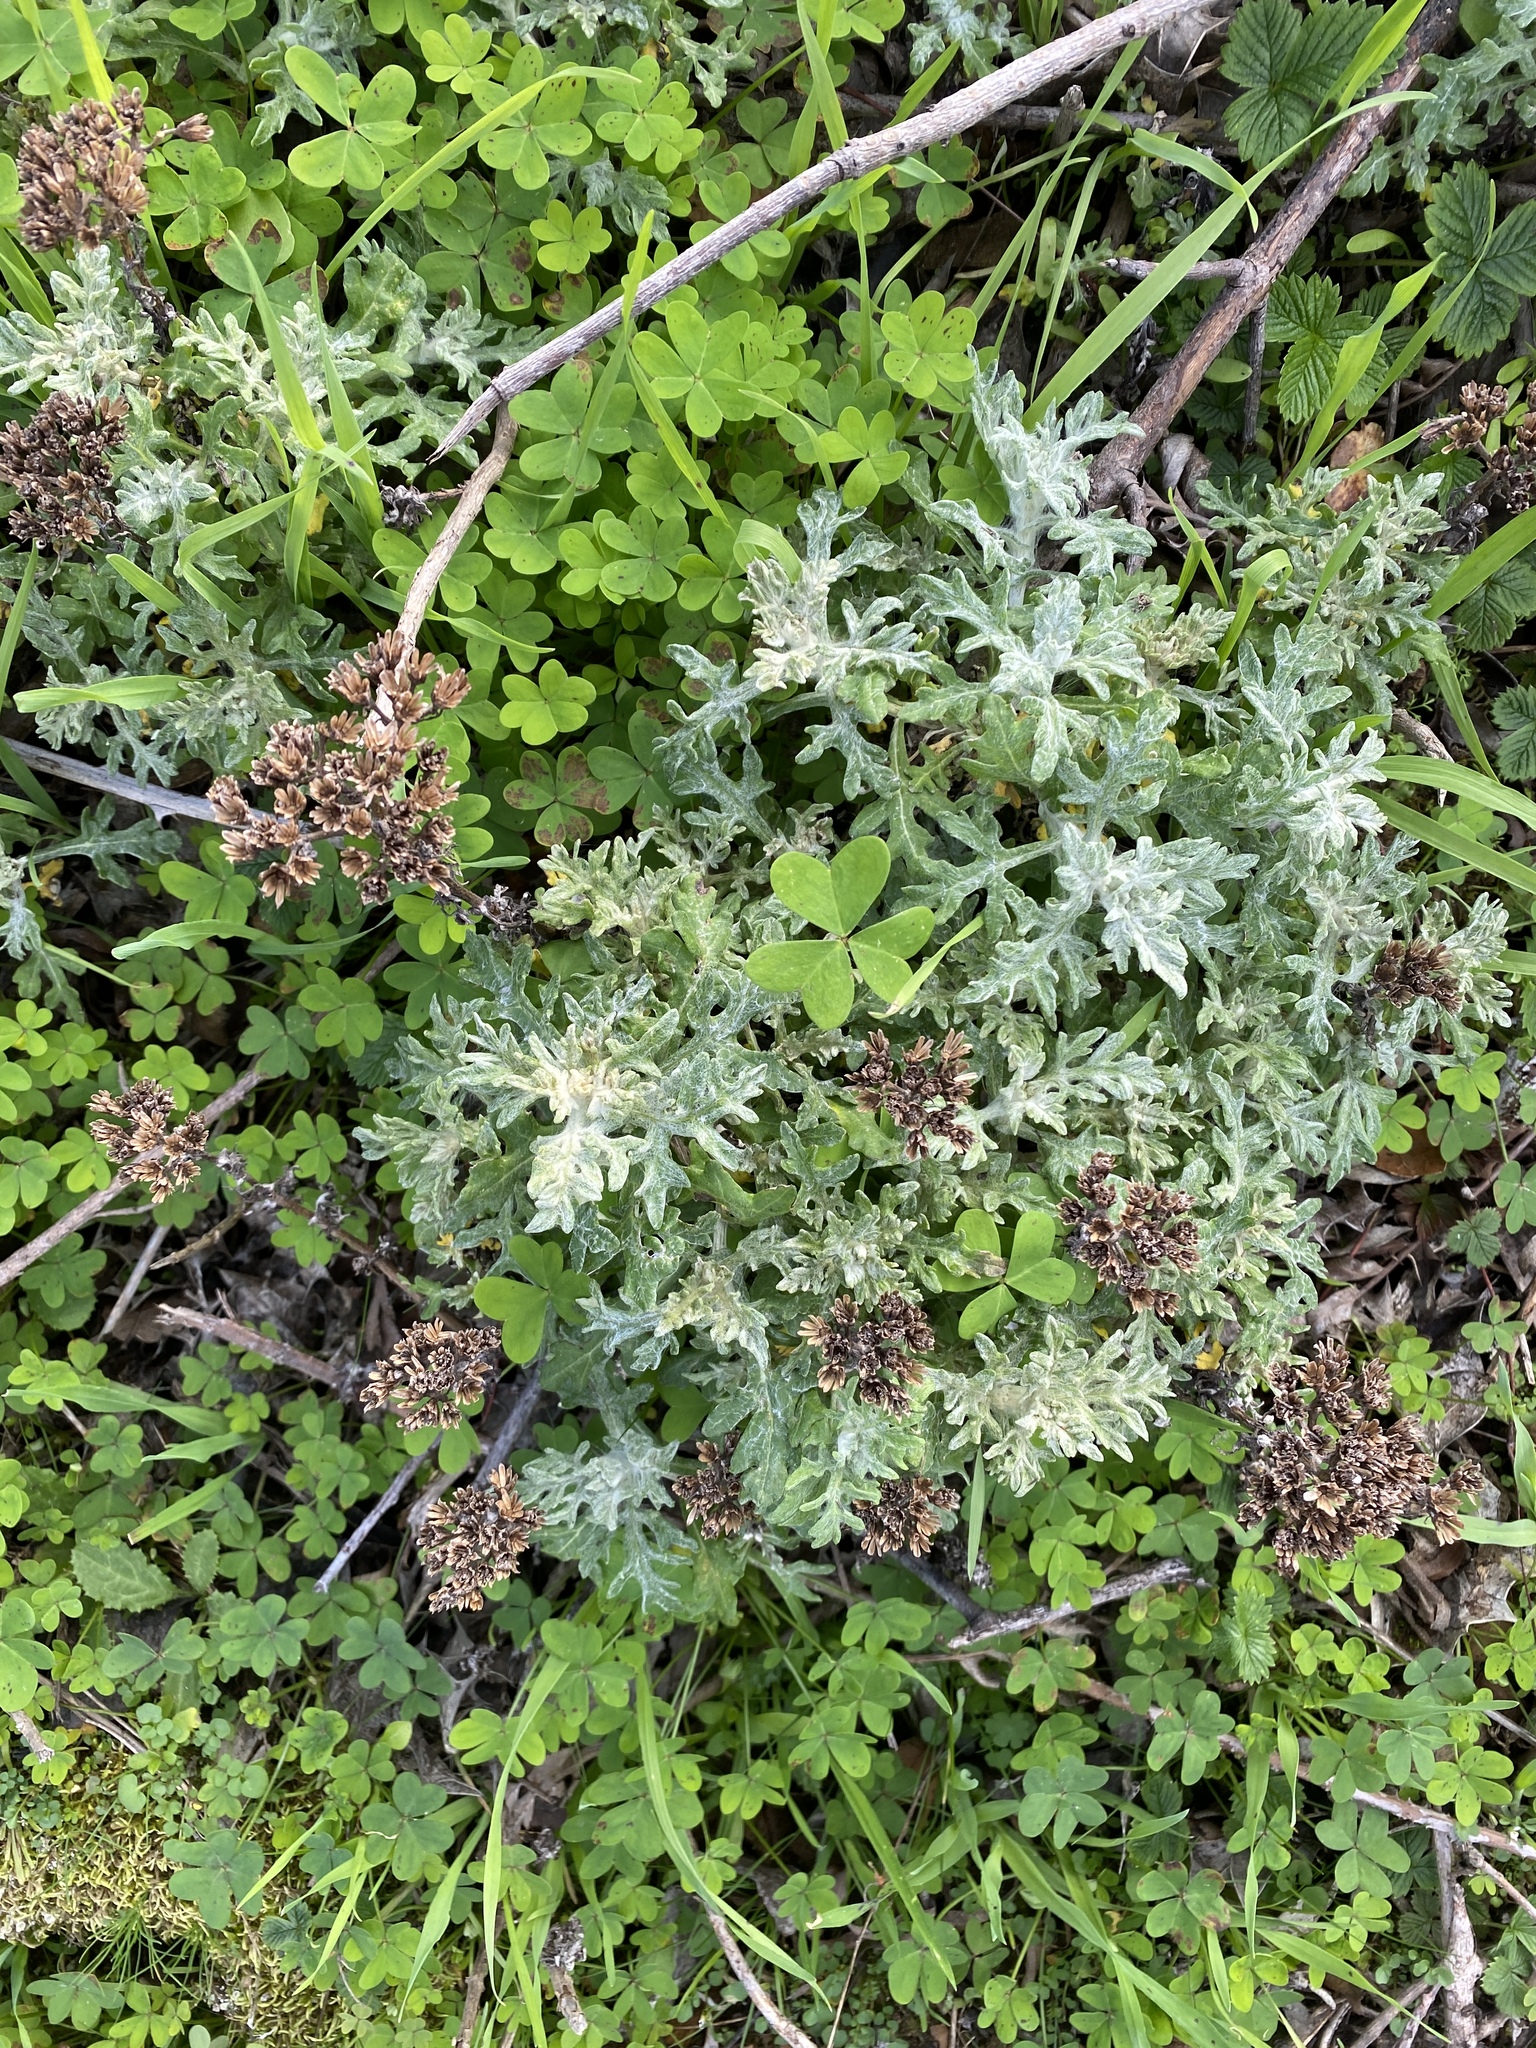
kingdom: Plantae
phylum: Tracheophyta
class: Magnoliopsida
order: Asterales
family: Asteraceae
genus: Eriophyllum
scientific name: Eriophyllum staechadifolium
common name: Lizardtail
